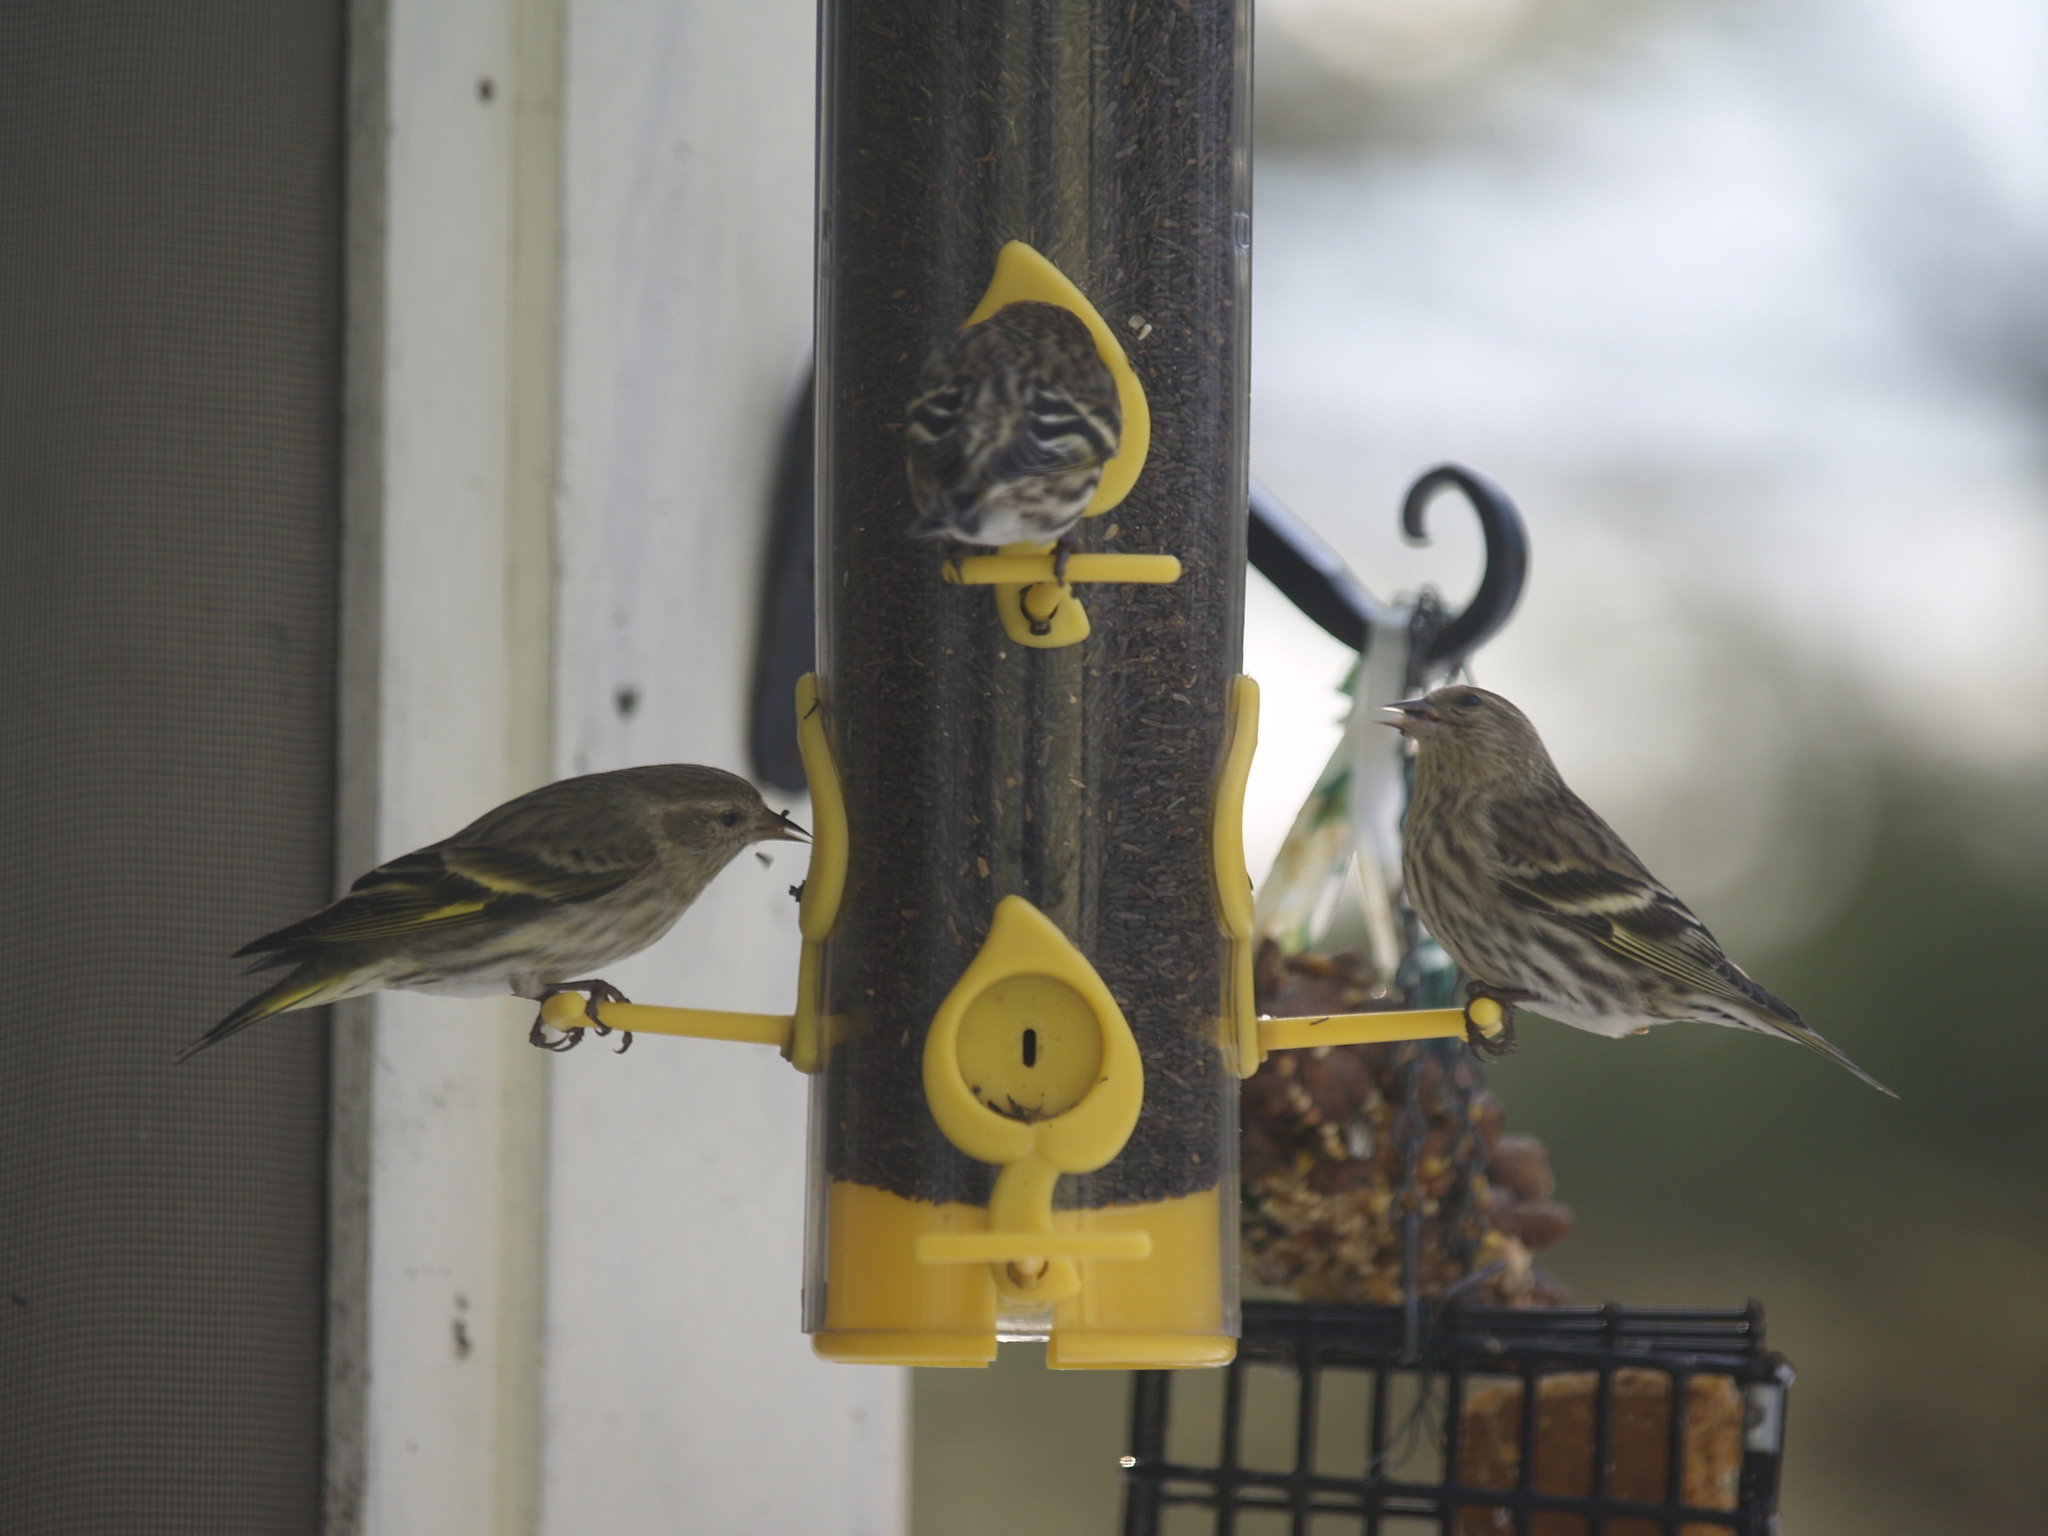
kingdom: Animalia
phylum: Chordata
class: Aves
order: Passeriformes
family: Fringillidae
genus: Spinus
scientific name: Spinus pinus
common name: Pine siskin
